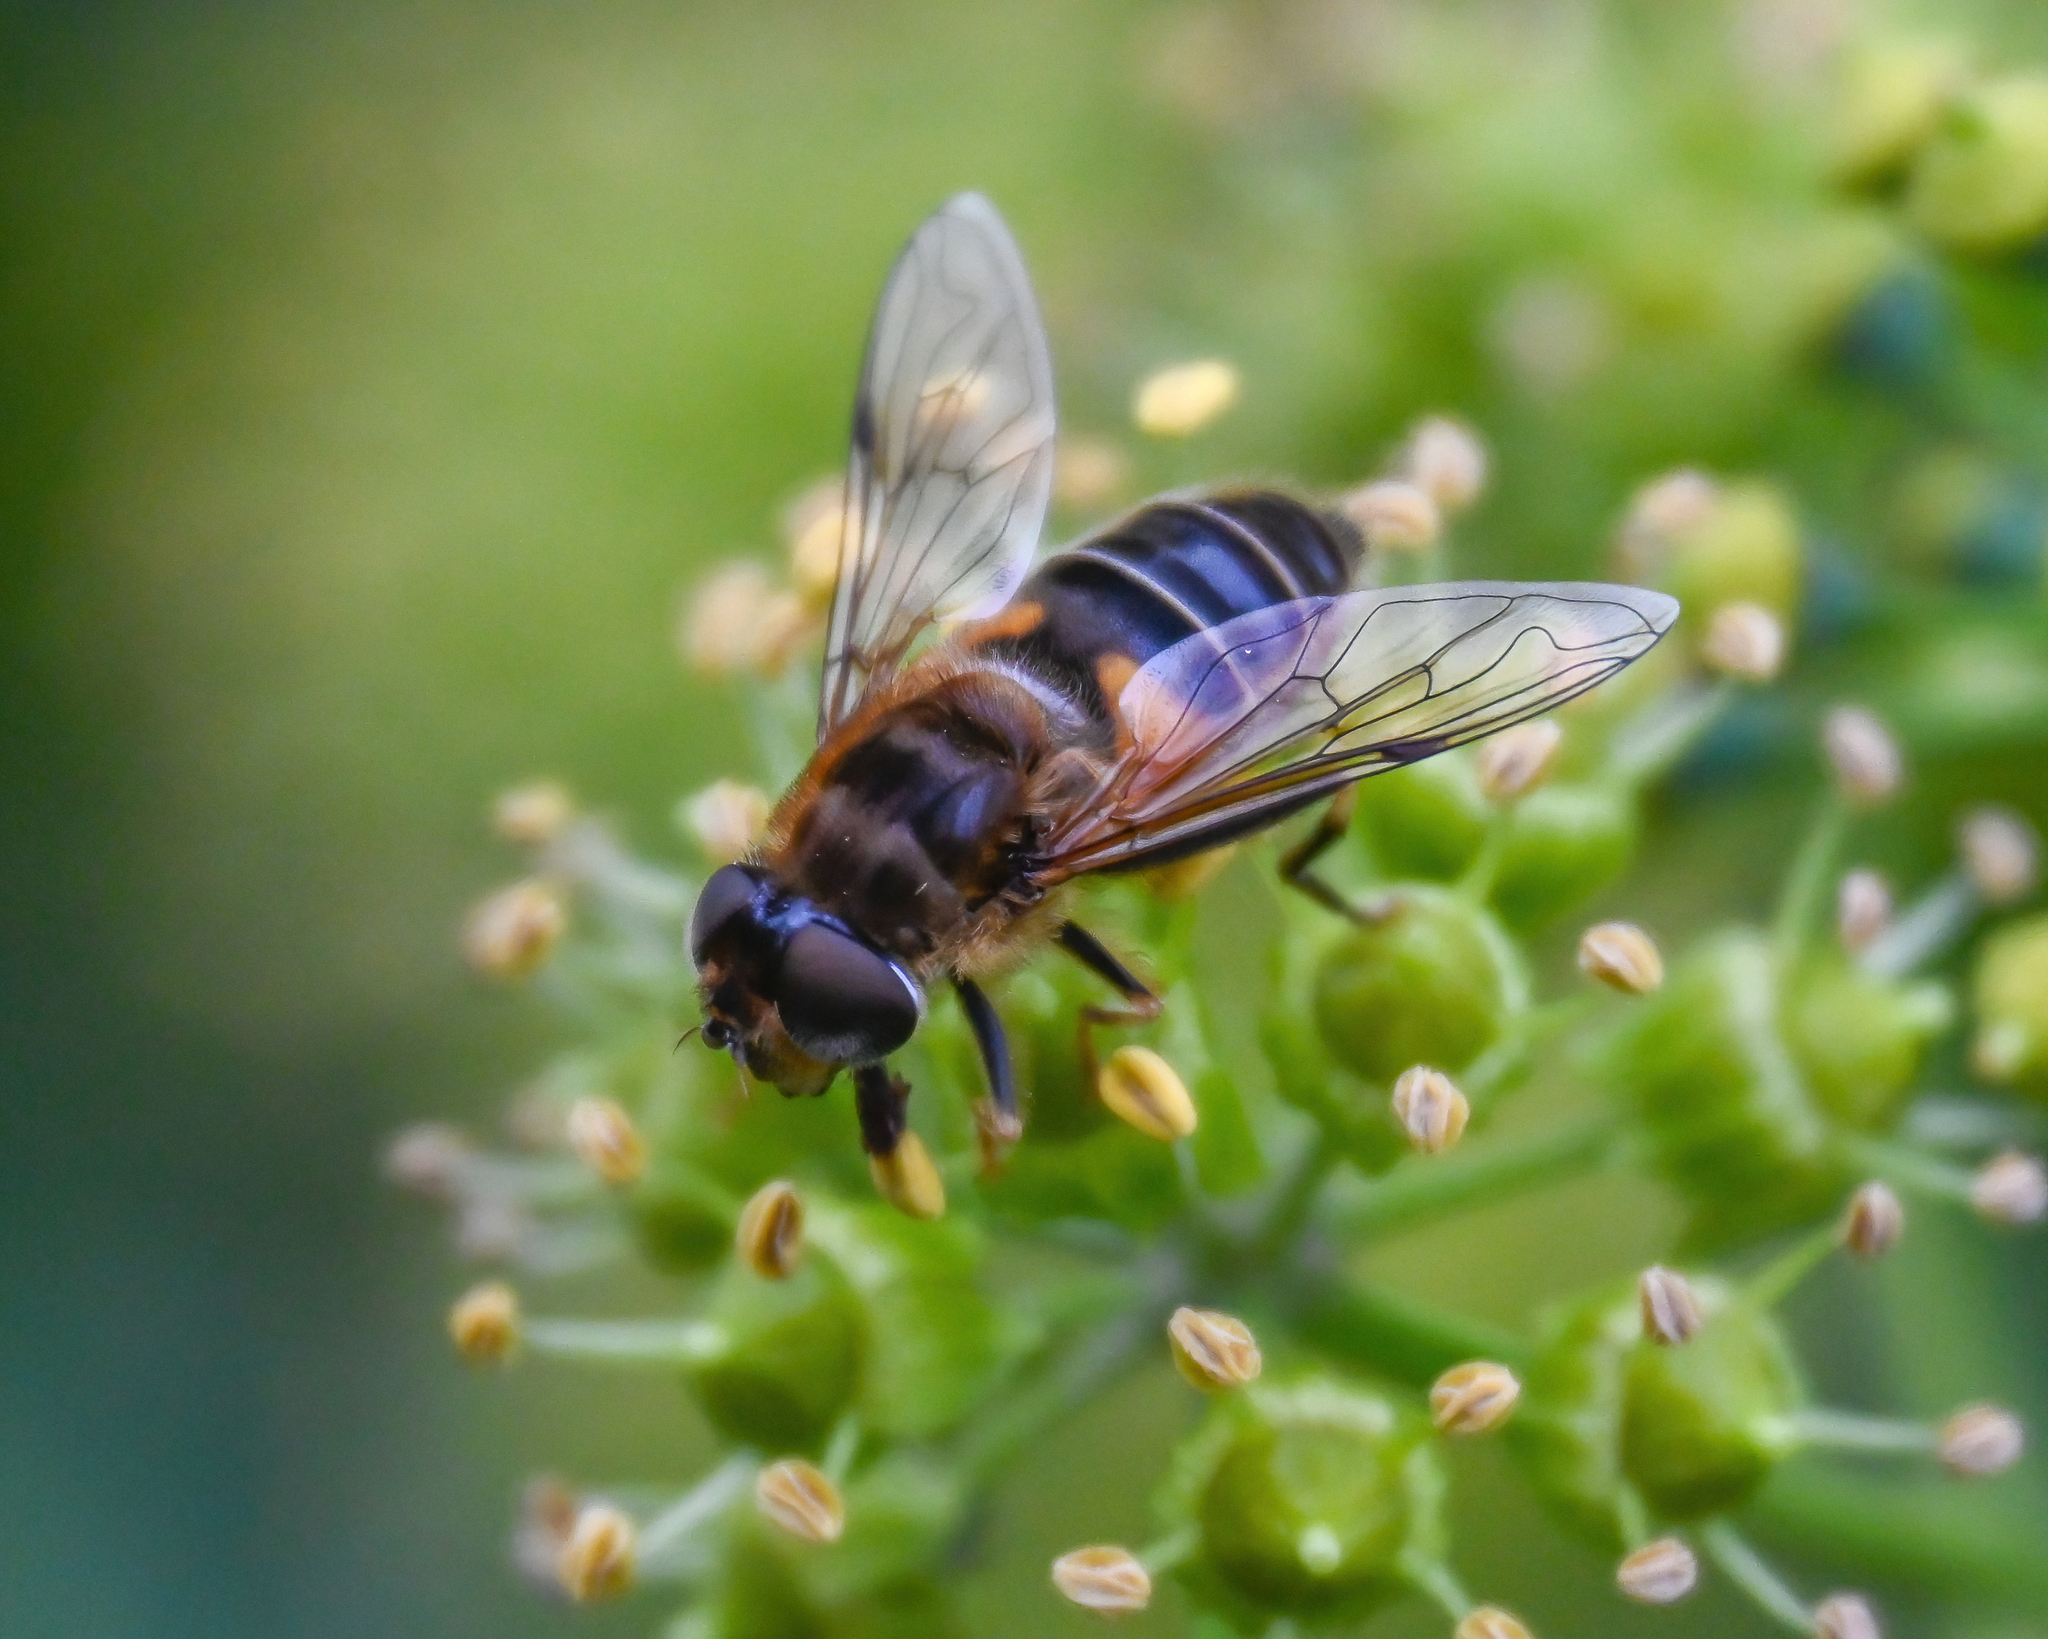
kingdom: Animalia
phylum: Arthropoda
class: Insecta
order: Diptera
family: Syrphidae
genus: Eristalis
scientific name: Eristalis pertinax
